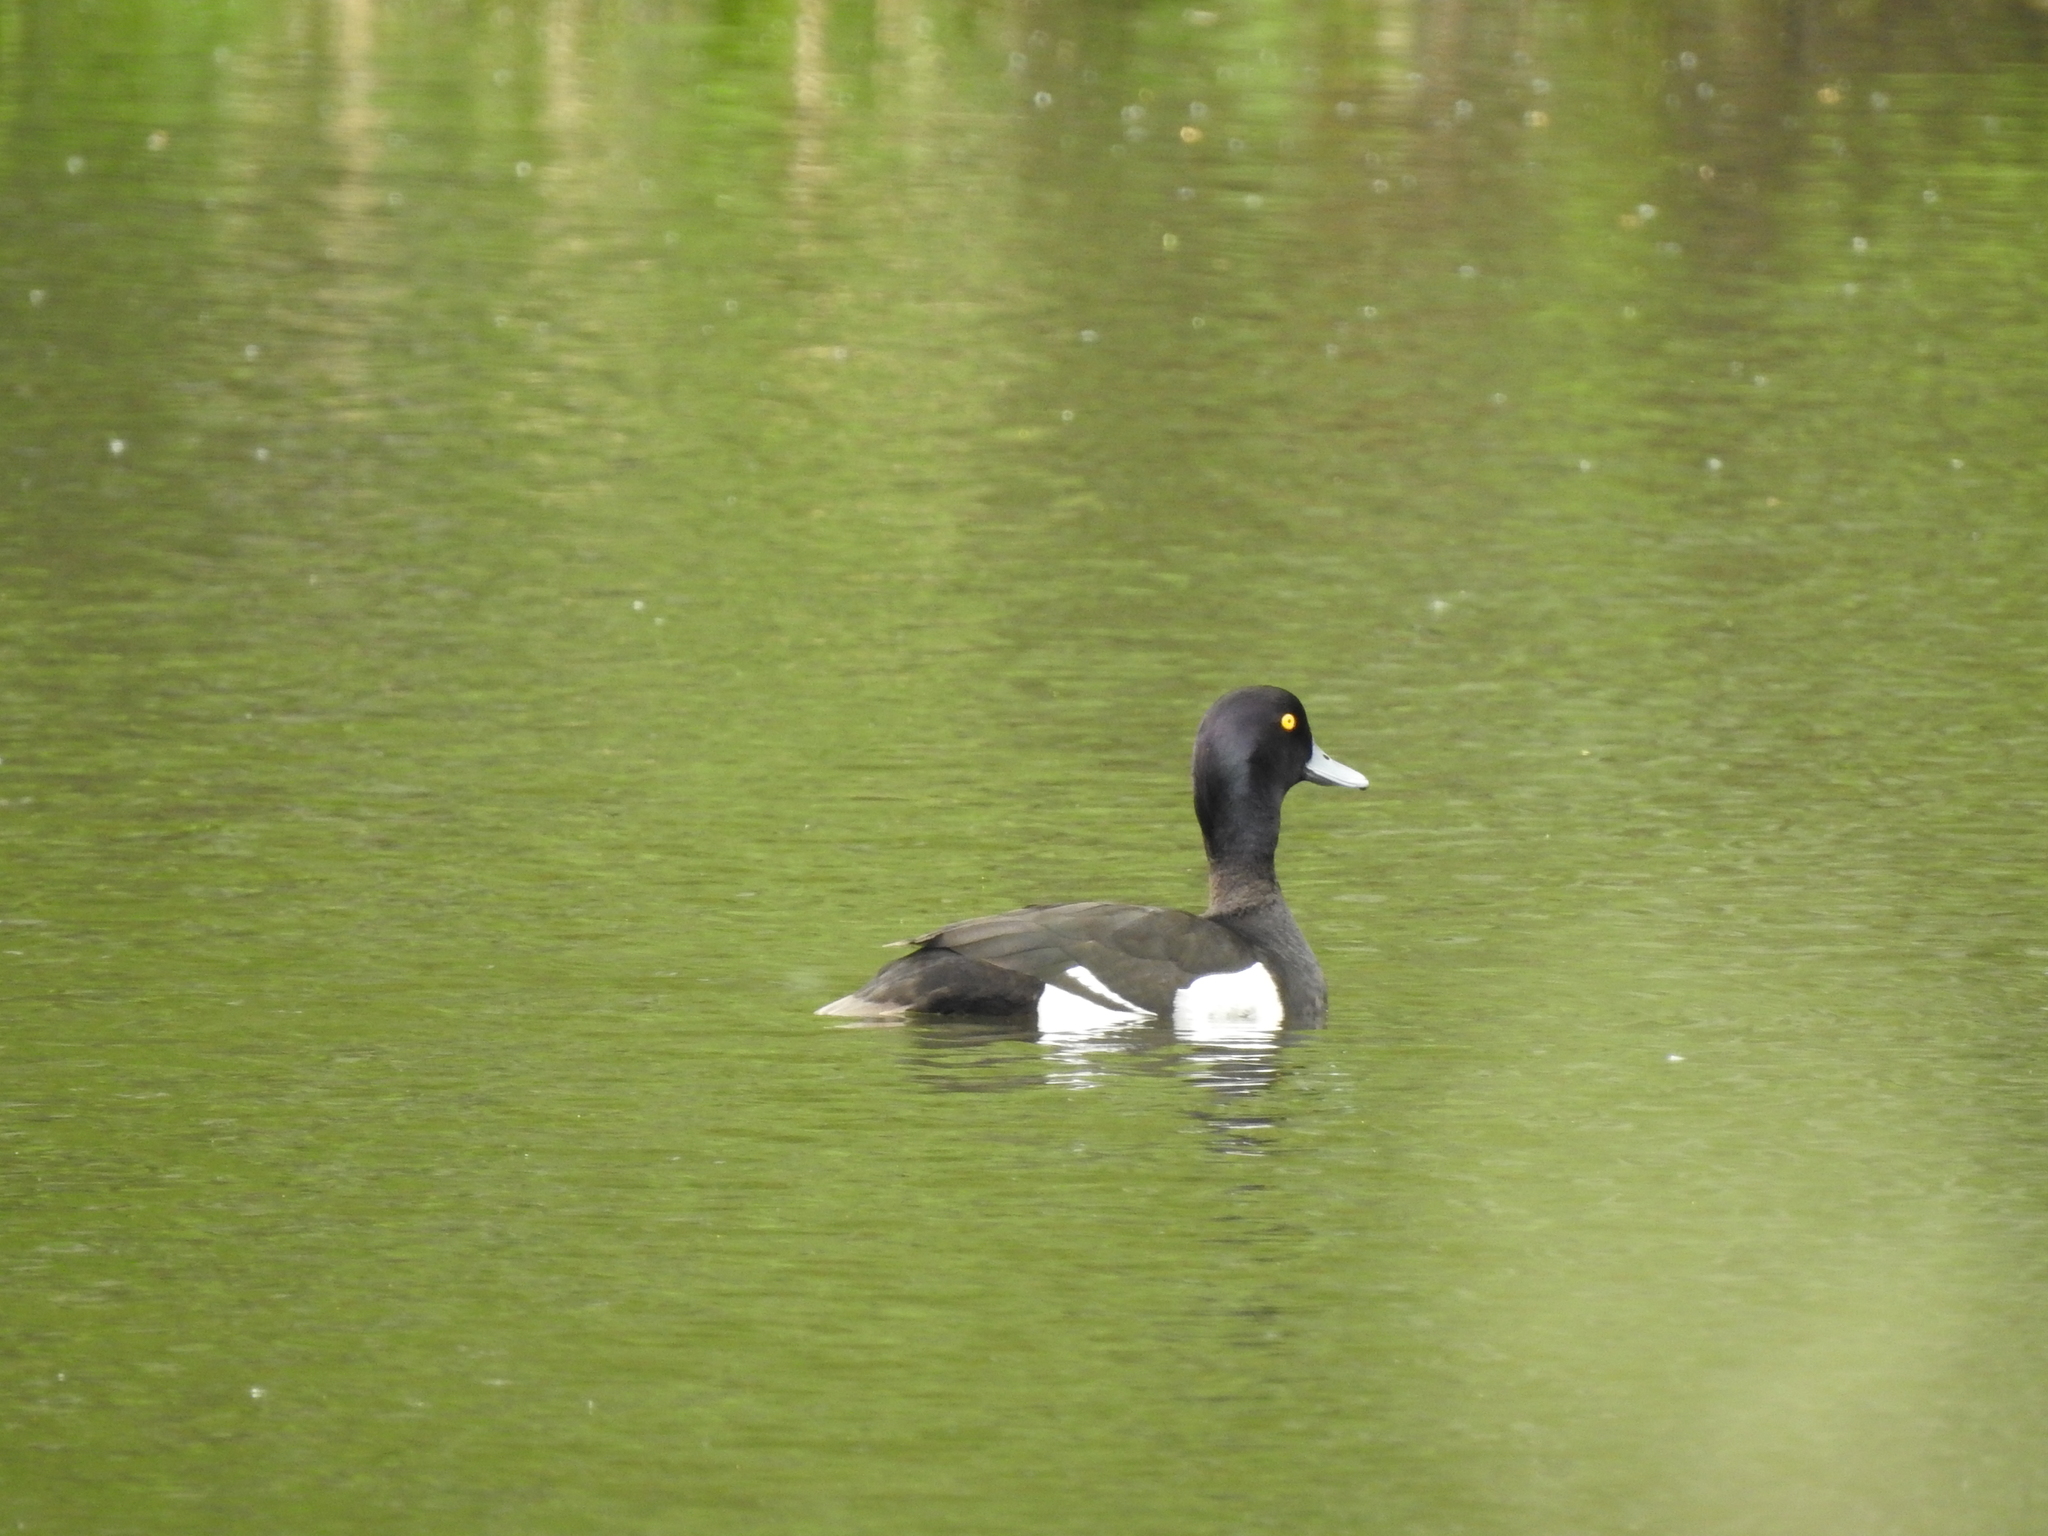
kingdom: Animalia
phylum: Chordata
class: Aves
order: Anseriformes
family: Anatidae
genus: Aythya
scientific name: Aythya fuligula
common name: Tufted duck
